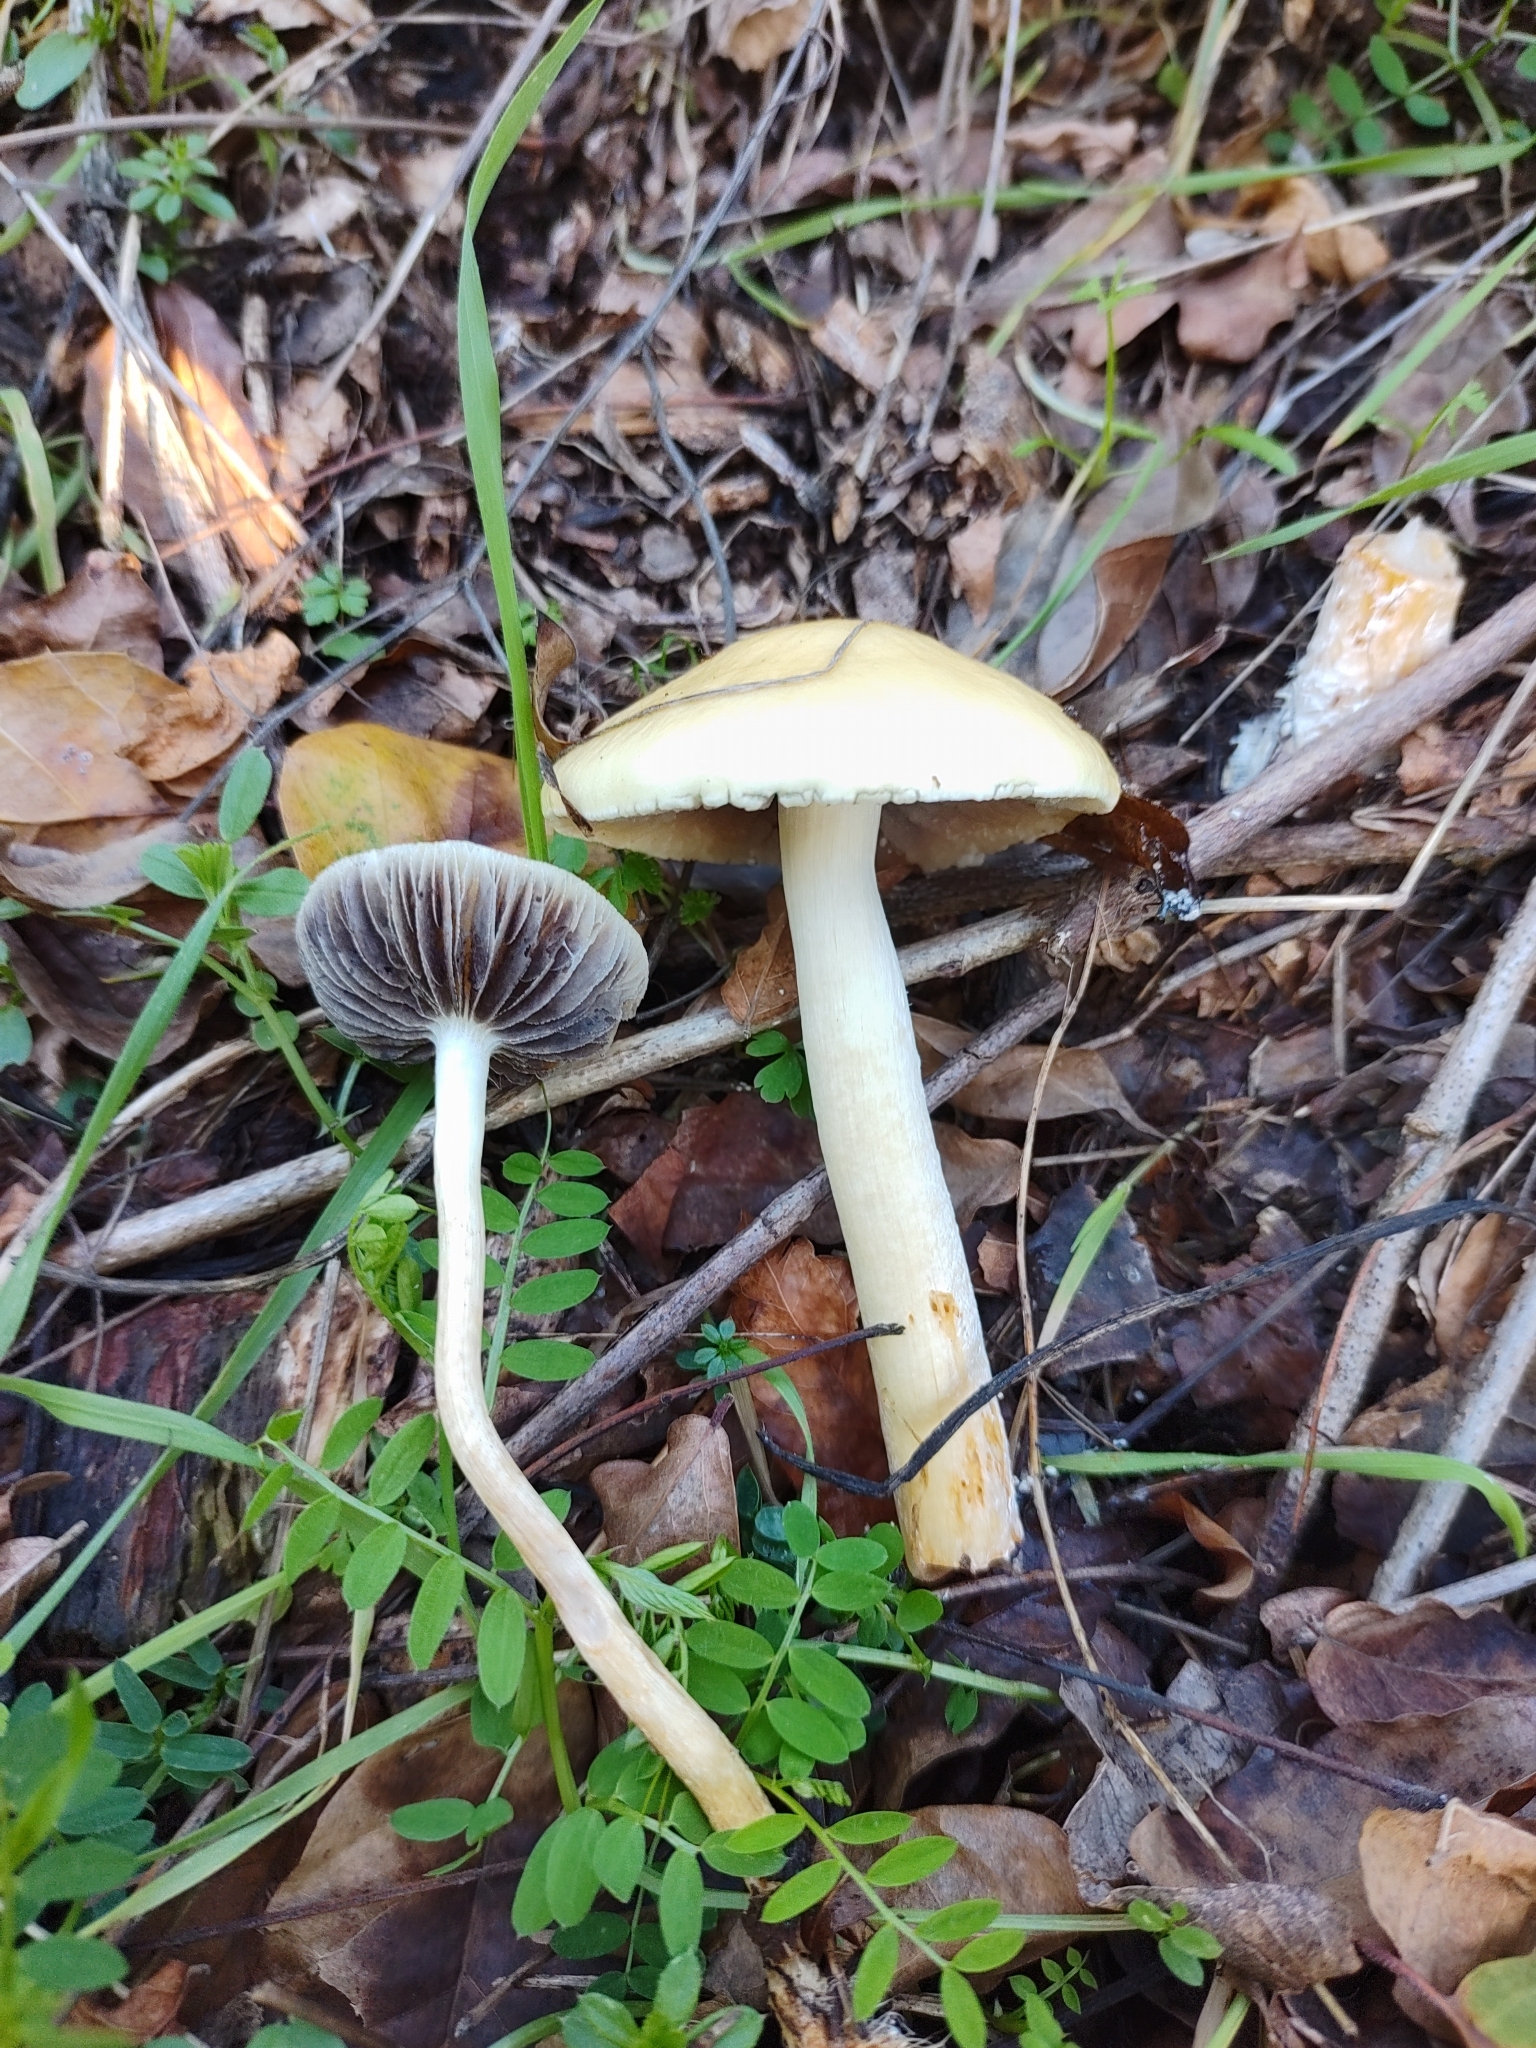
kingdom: Fungi
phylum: Basidiomycota
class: Agaricomycetes
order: Agaricales
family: Strophariaceae
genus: Leratiomyces
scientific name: Leratiomyces percevalii
